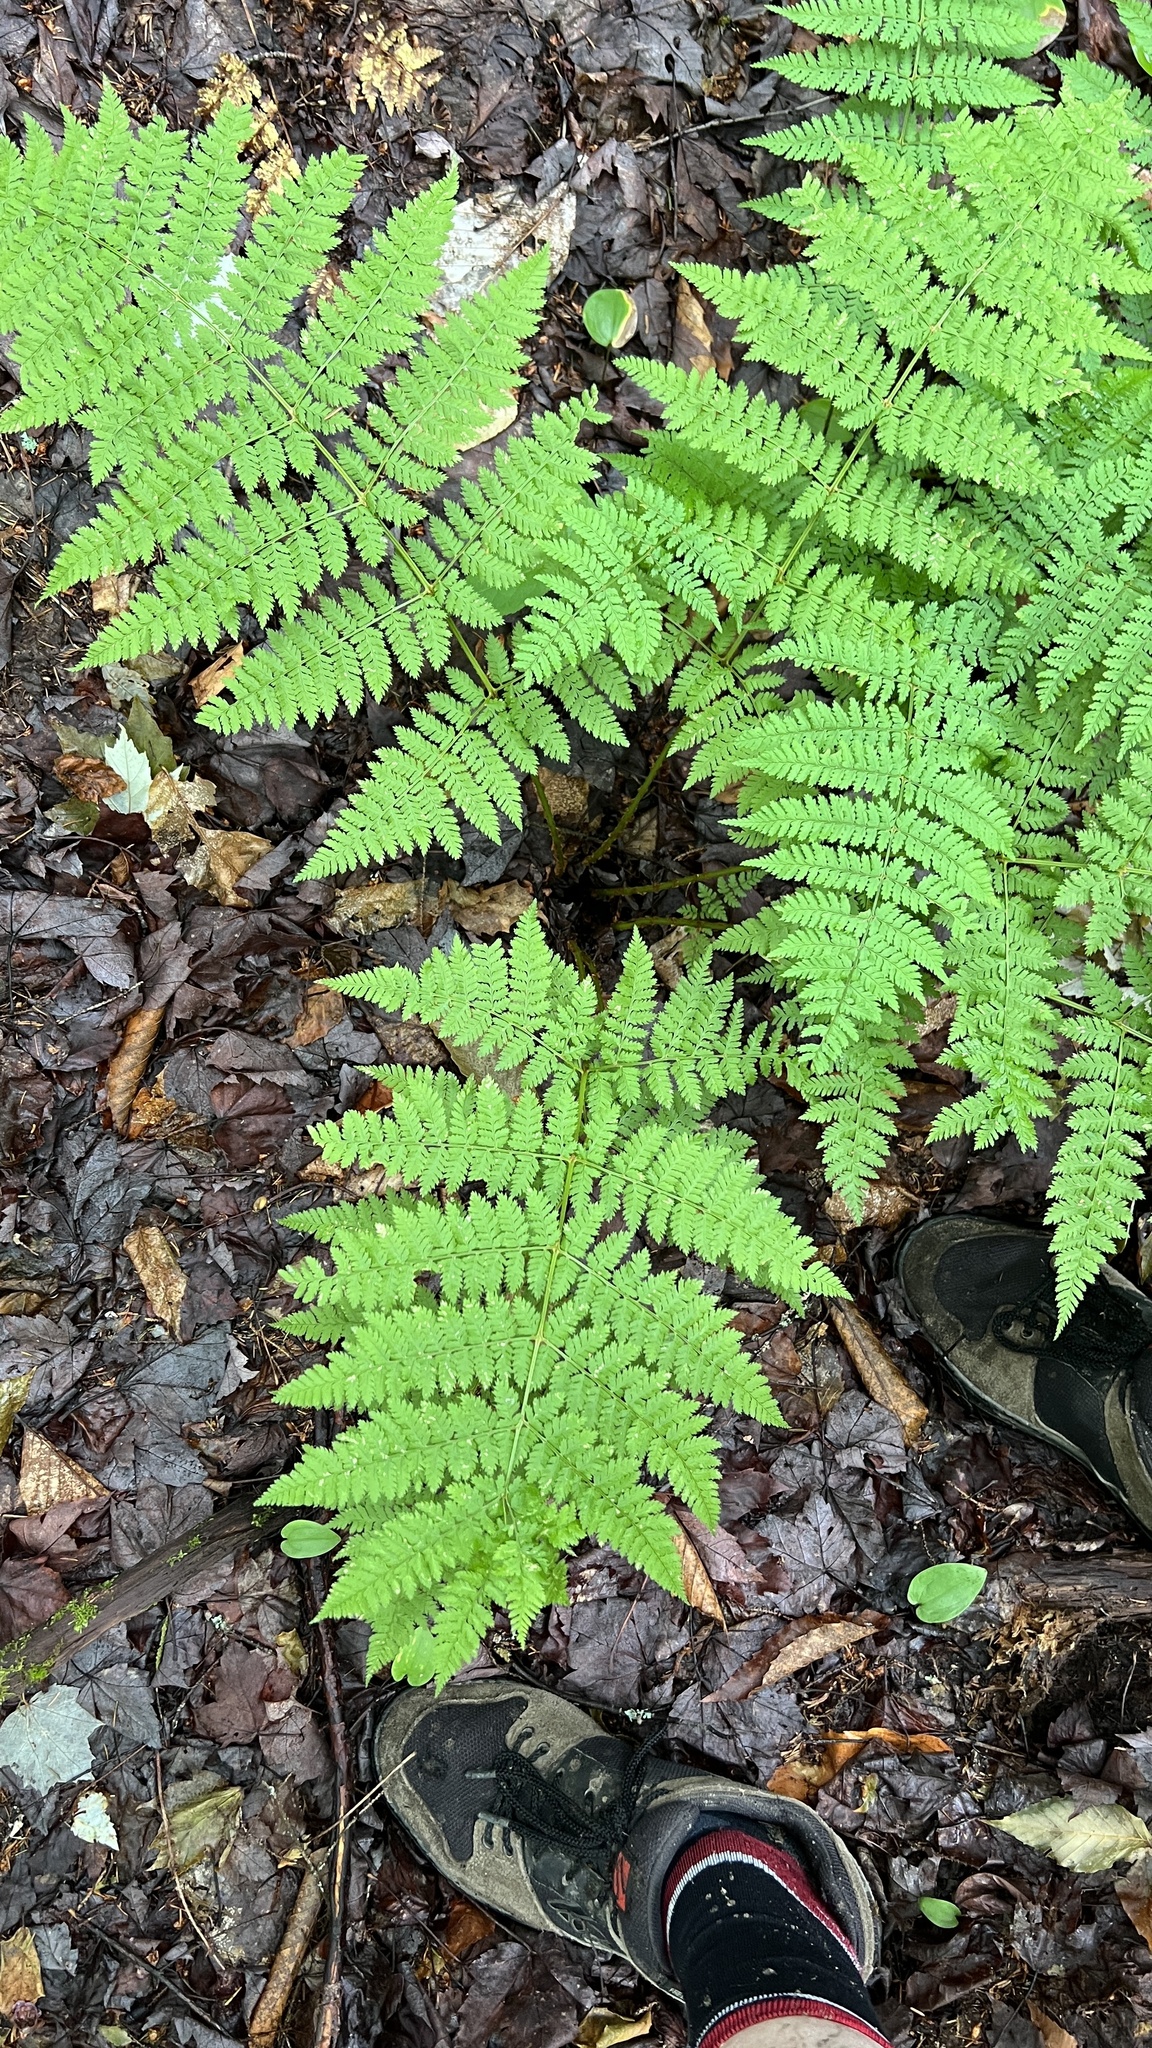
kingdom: Plantae
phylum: Tracheophyta
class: Polypodiopsida
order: Polypodiales
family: Dryopteridaceae
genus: Dryopteris
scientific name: Dryopteris campyloptera
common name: Mountain wood fern
